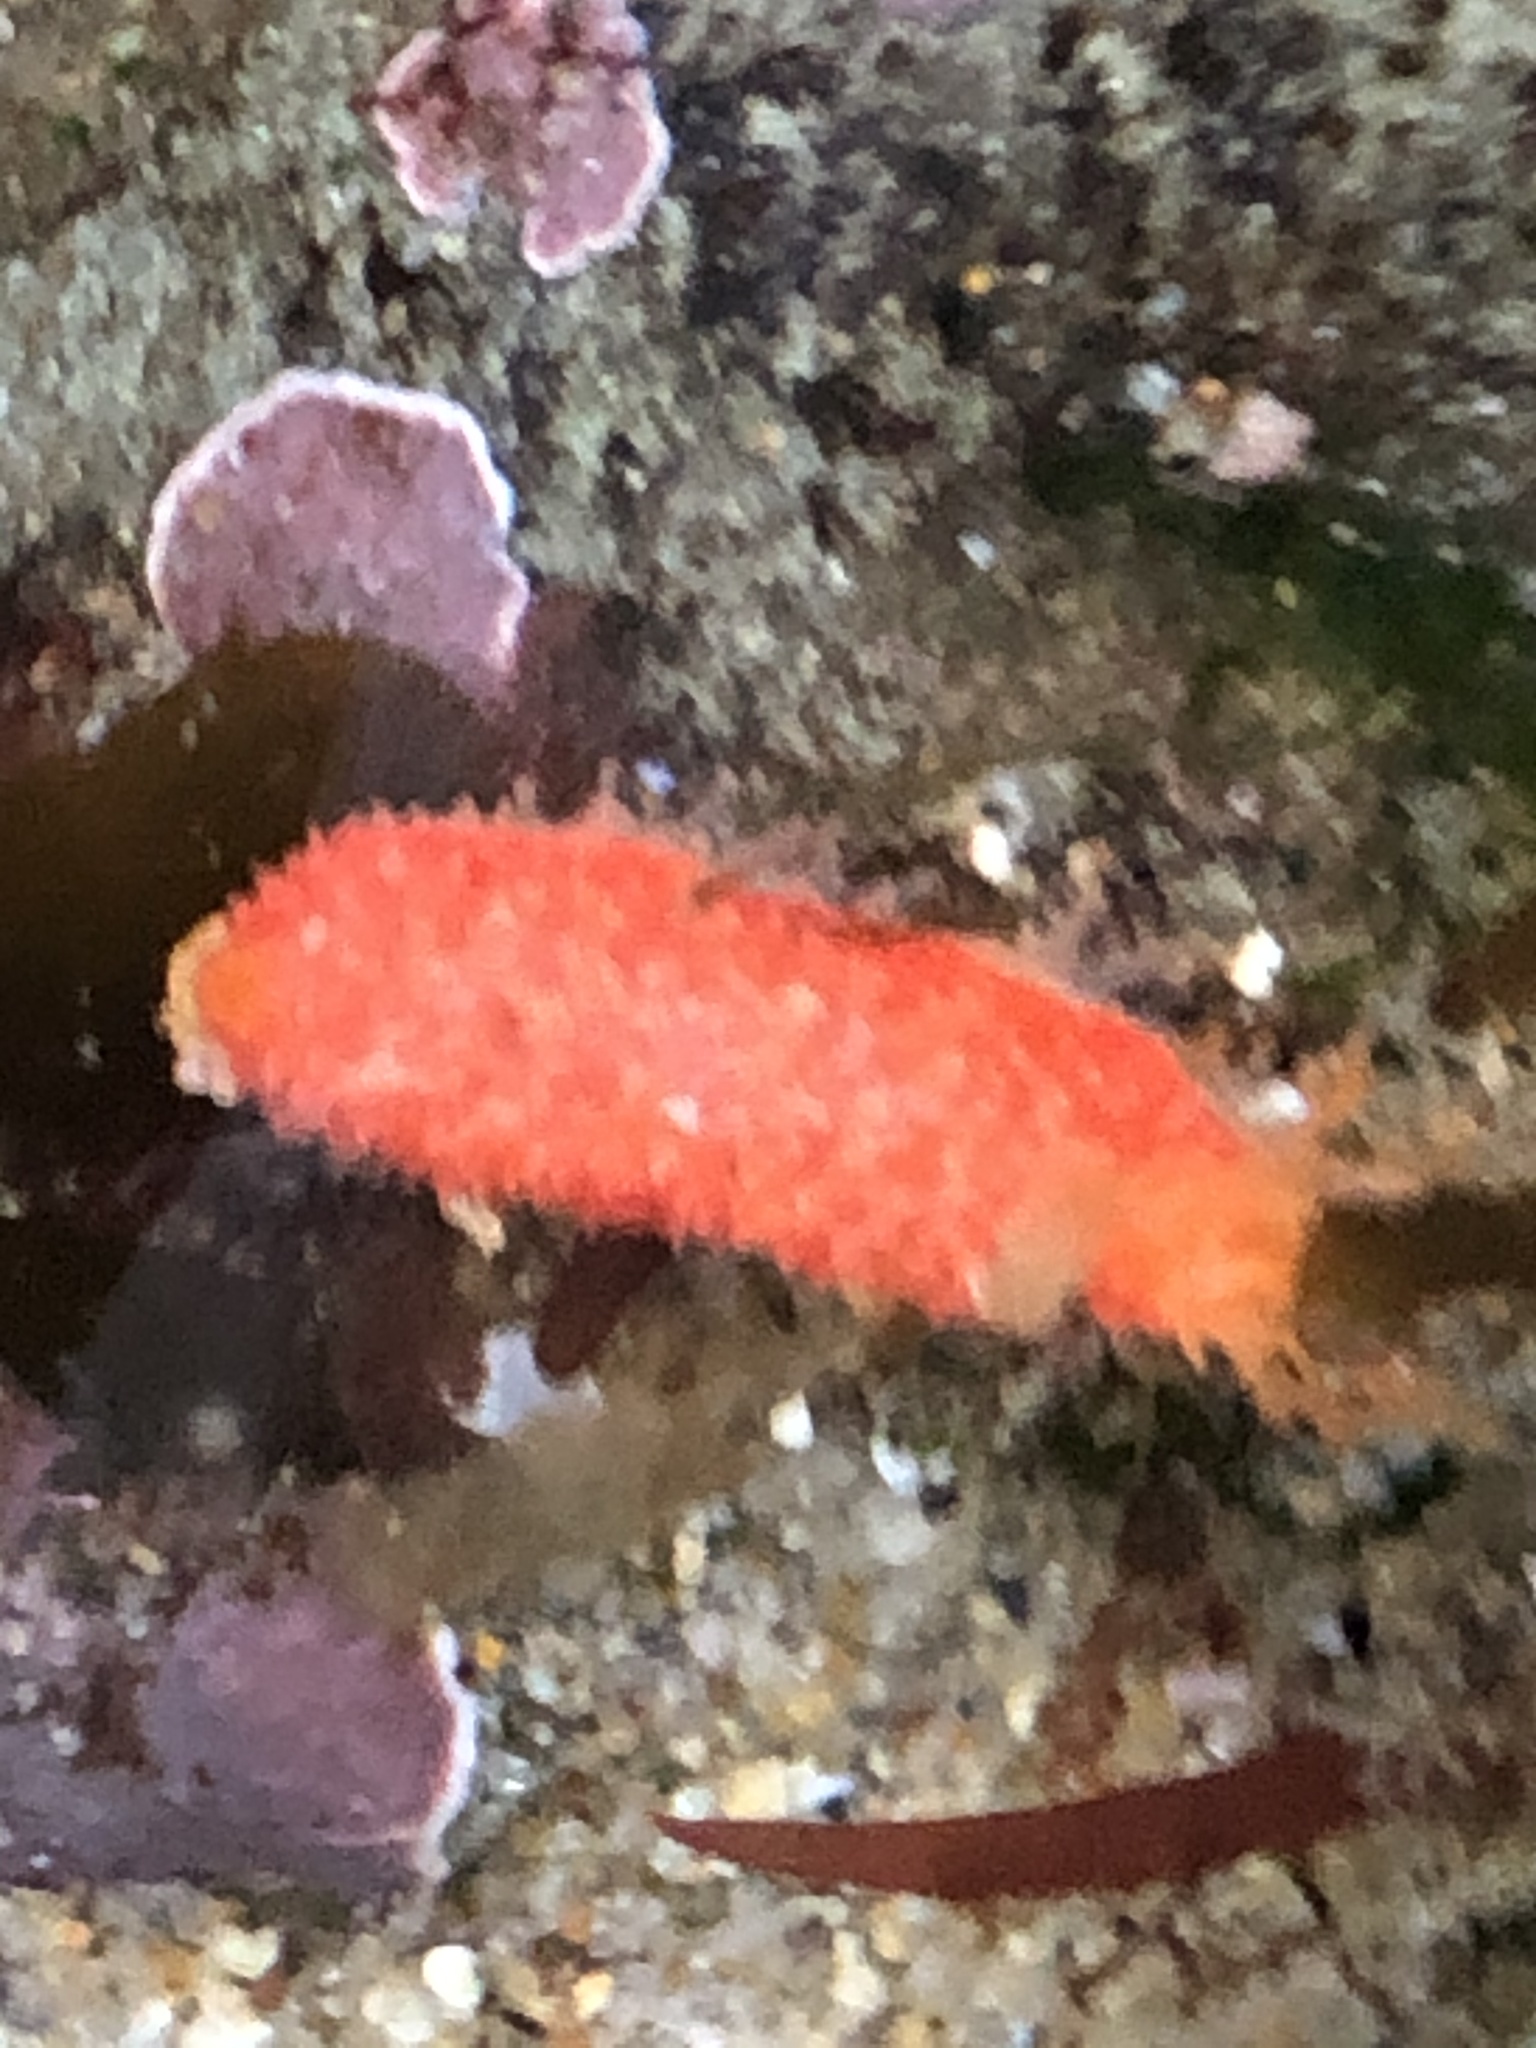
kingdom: Animalia
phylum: Echinodermata
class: Holothuroidea
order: Dendrochirotida
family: Psolidae
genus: Lissothuria
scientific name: Lissothuria nutriens
